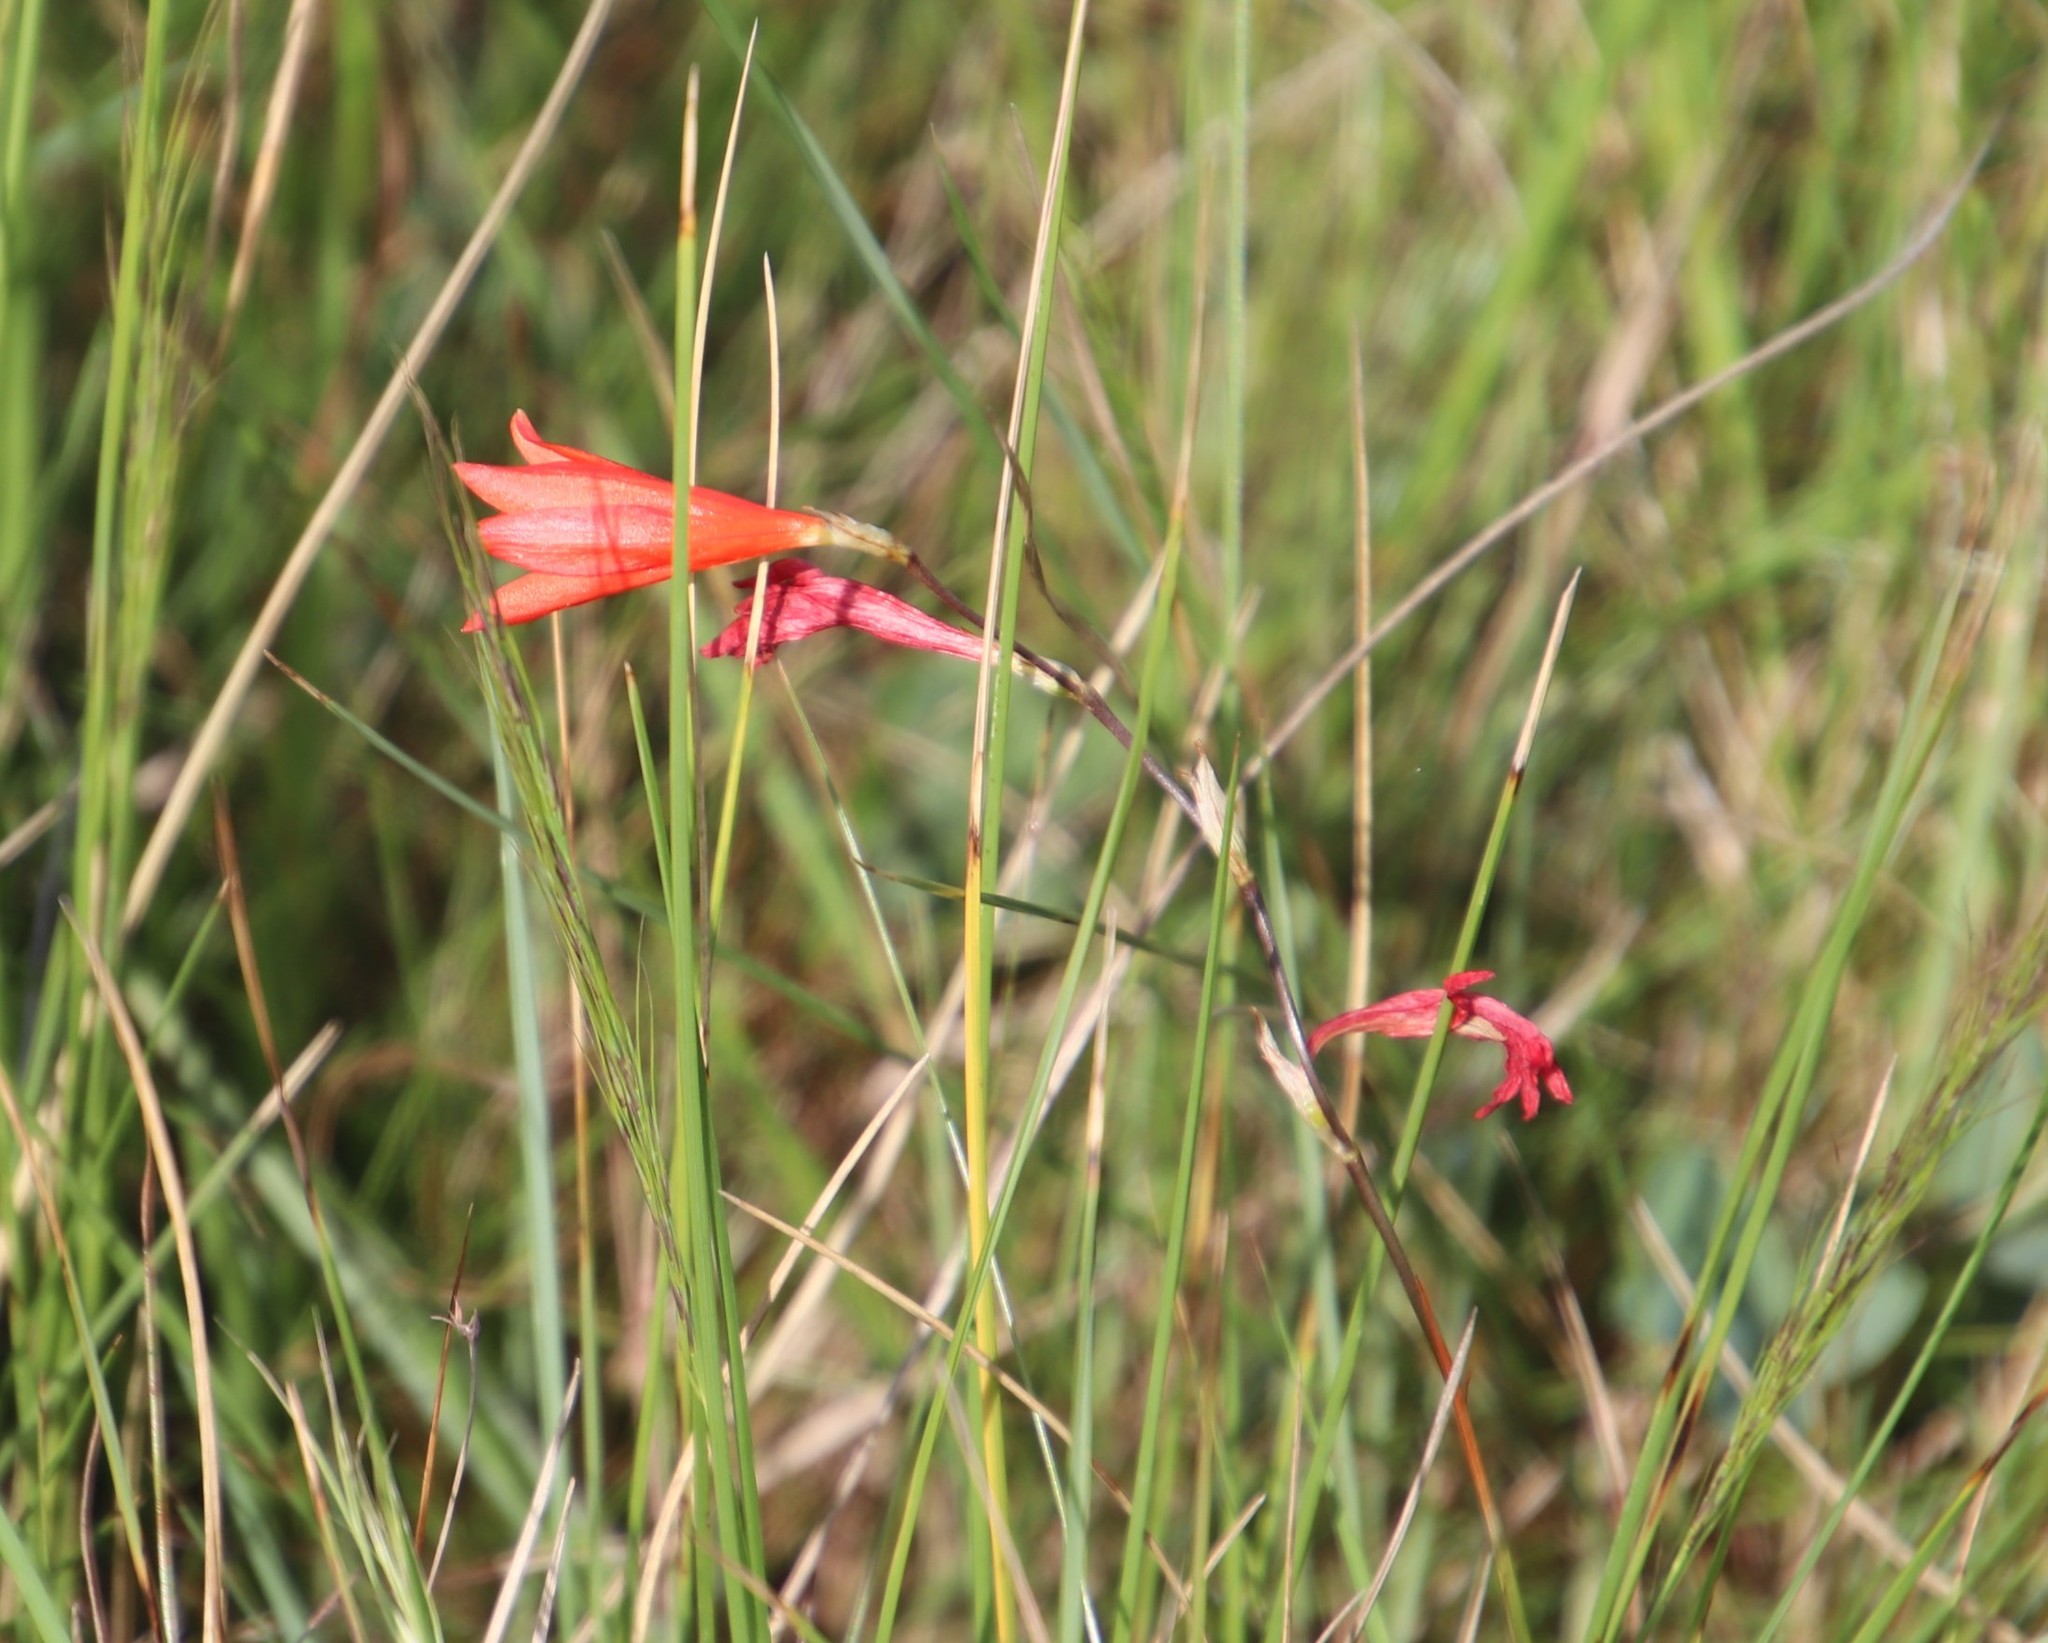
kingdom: Plantae
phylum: Tracheophyta
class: Liliopsida
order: Asparagales
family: Iridaceae
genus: Tritonia
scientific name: Tritonia disticha
